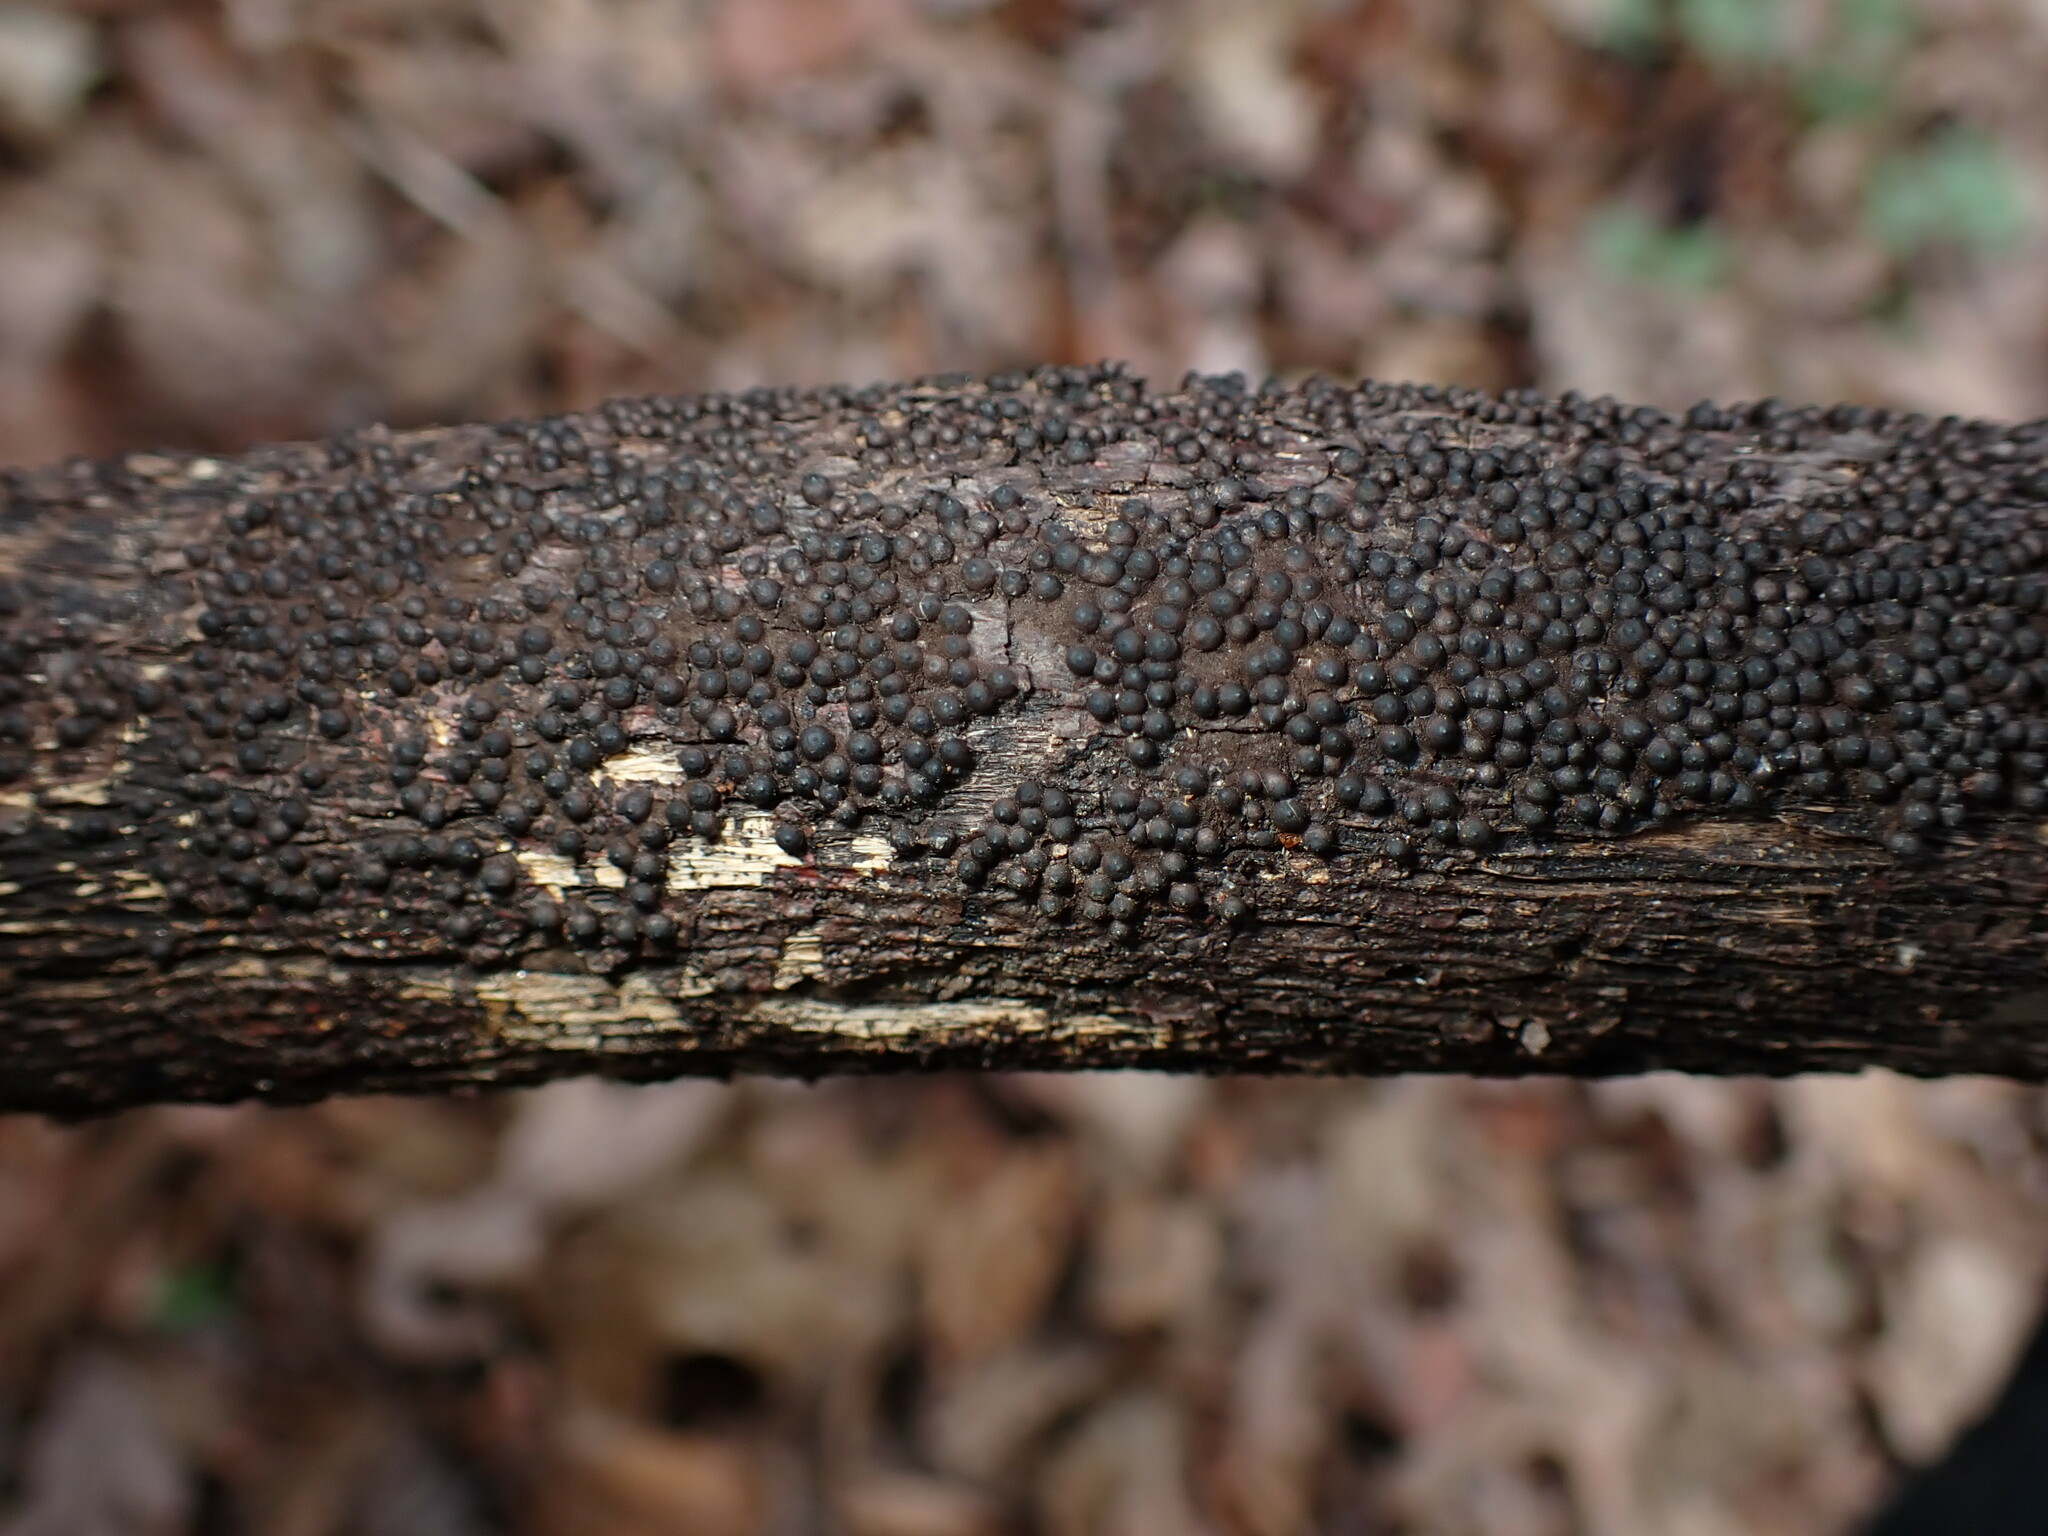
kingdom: Fungi
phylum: Ascomycota
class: Sordariomycetes
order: Xylariales
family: Xylariaceae
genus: Rosellinia
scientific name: Rosellinia corticium
